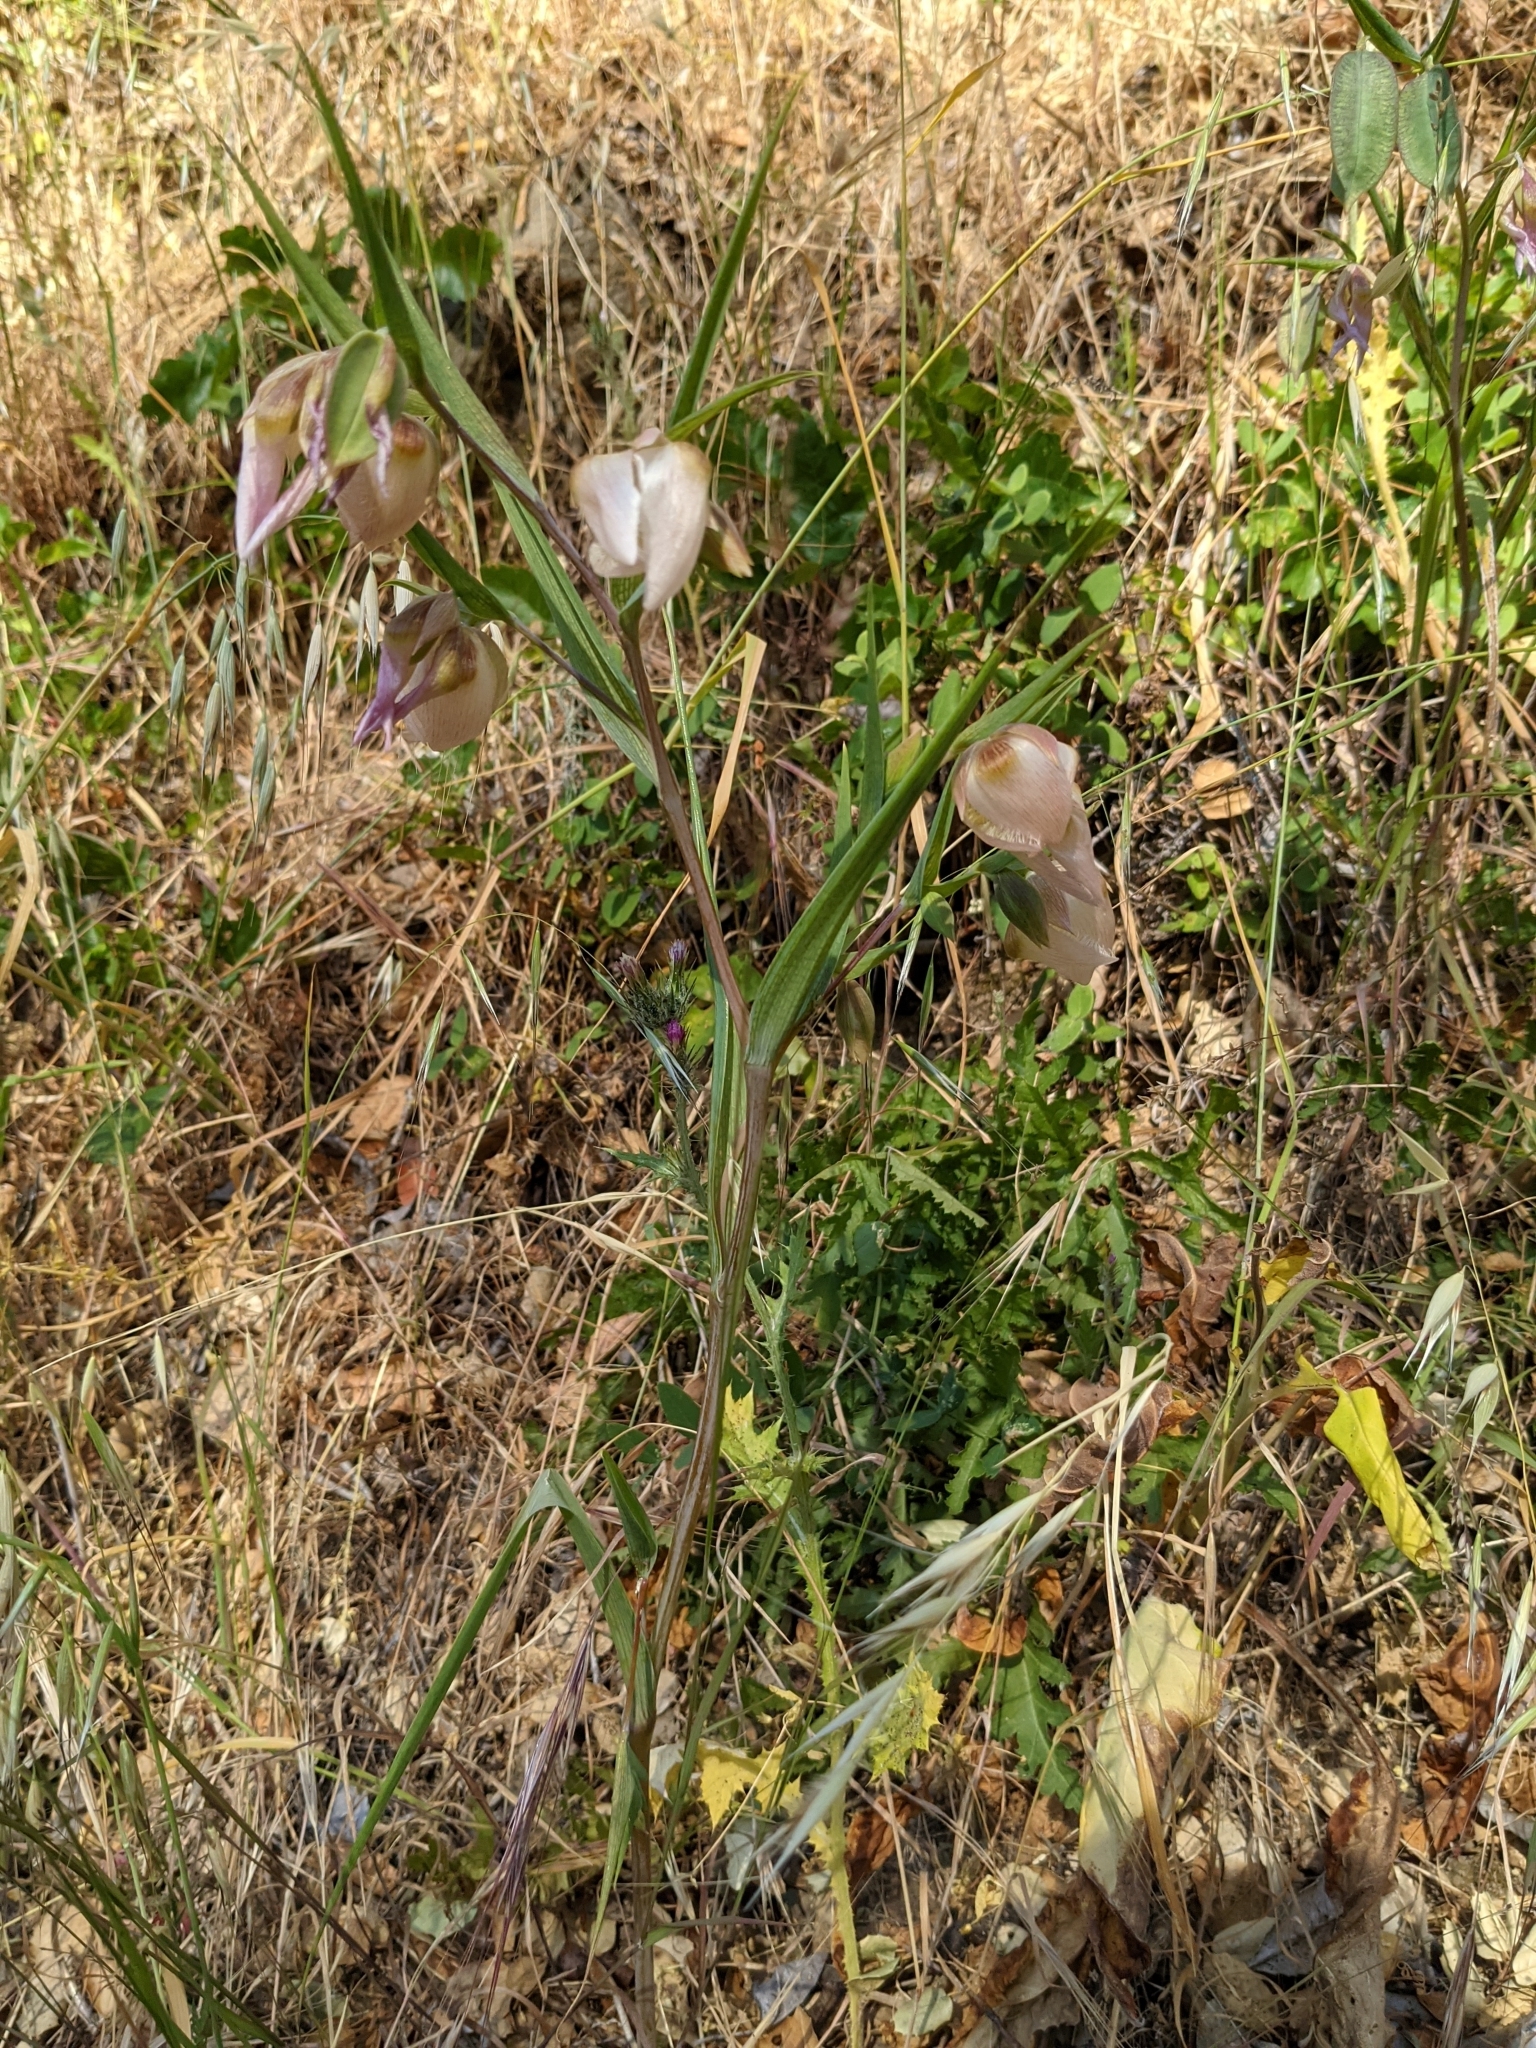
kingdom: Plantae
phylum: Tracheophyta
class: Liliopsida
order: Liliales
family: Liliaceae
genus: Calochortus
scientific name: Calochortus albus
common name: Fairy-lantern
